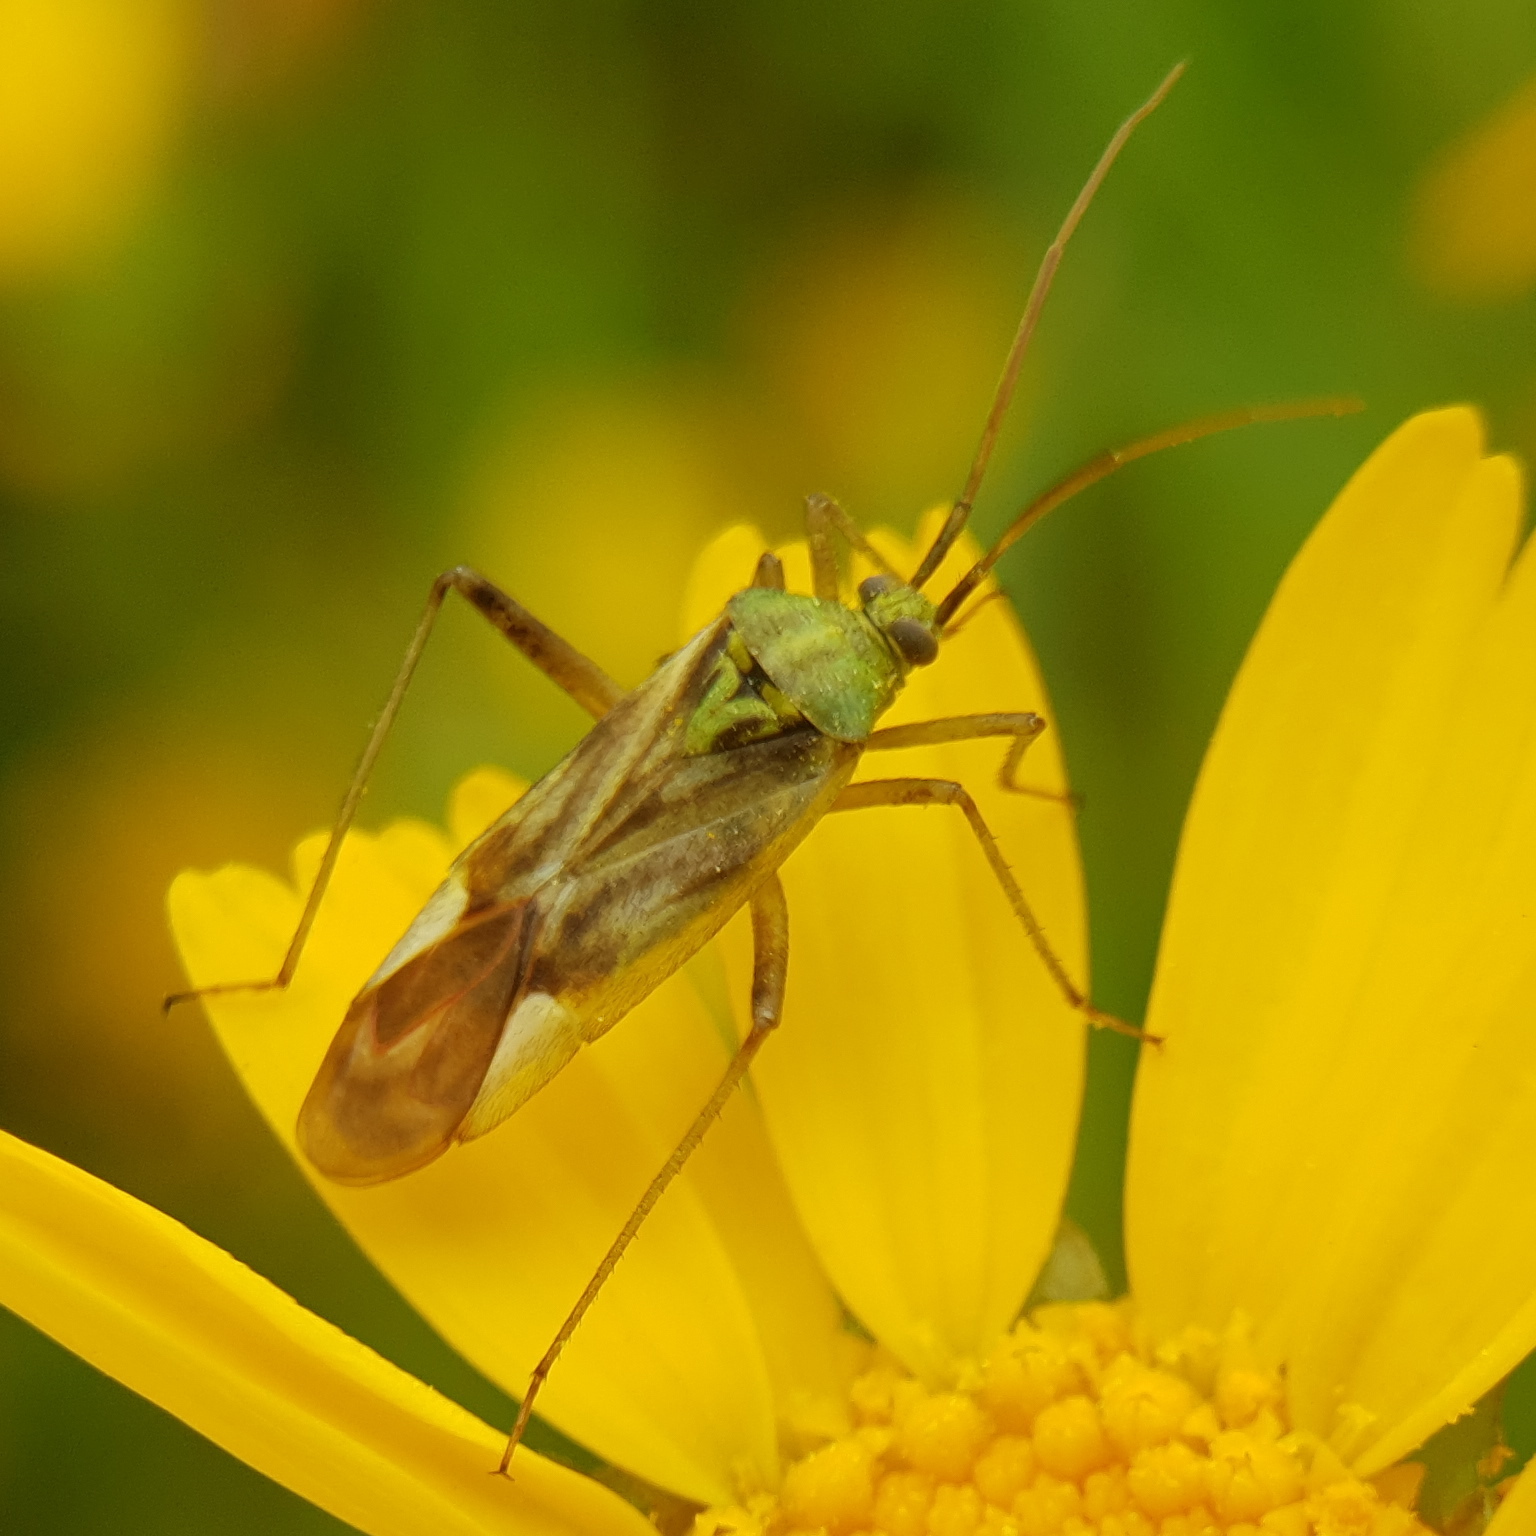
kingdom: Animalia
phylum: Arthropoda
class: Insecta
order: Hemiptera
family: Miridae
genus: Reuterista
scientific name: Reuterista instabilis
